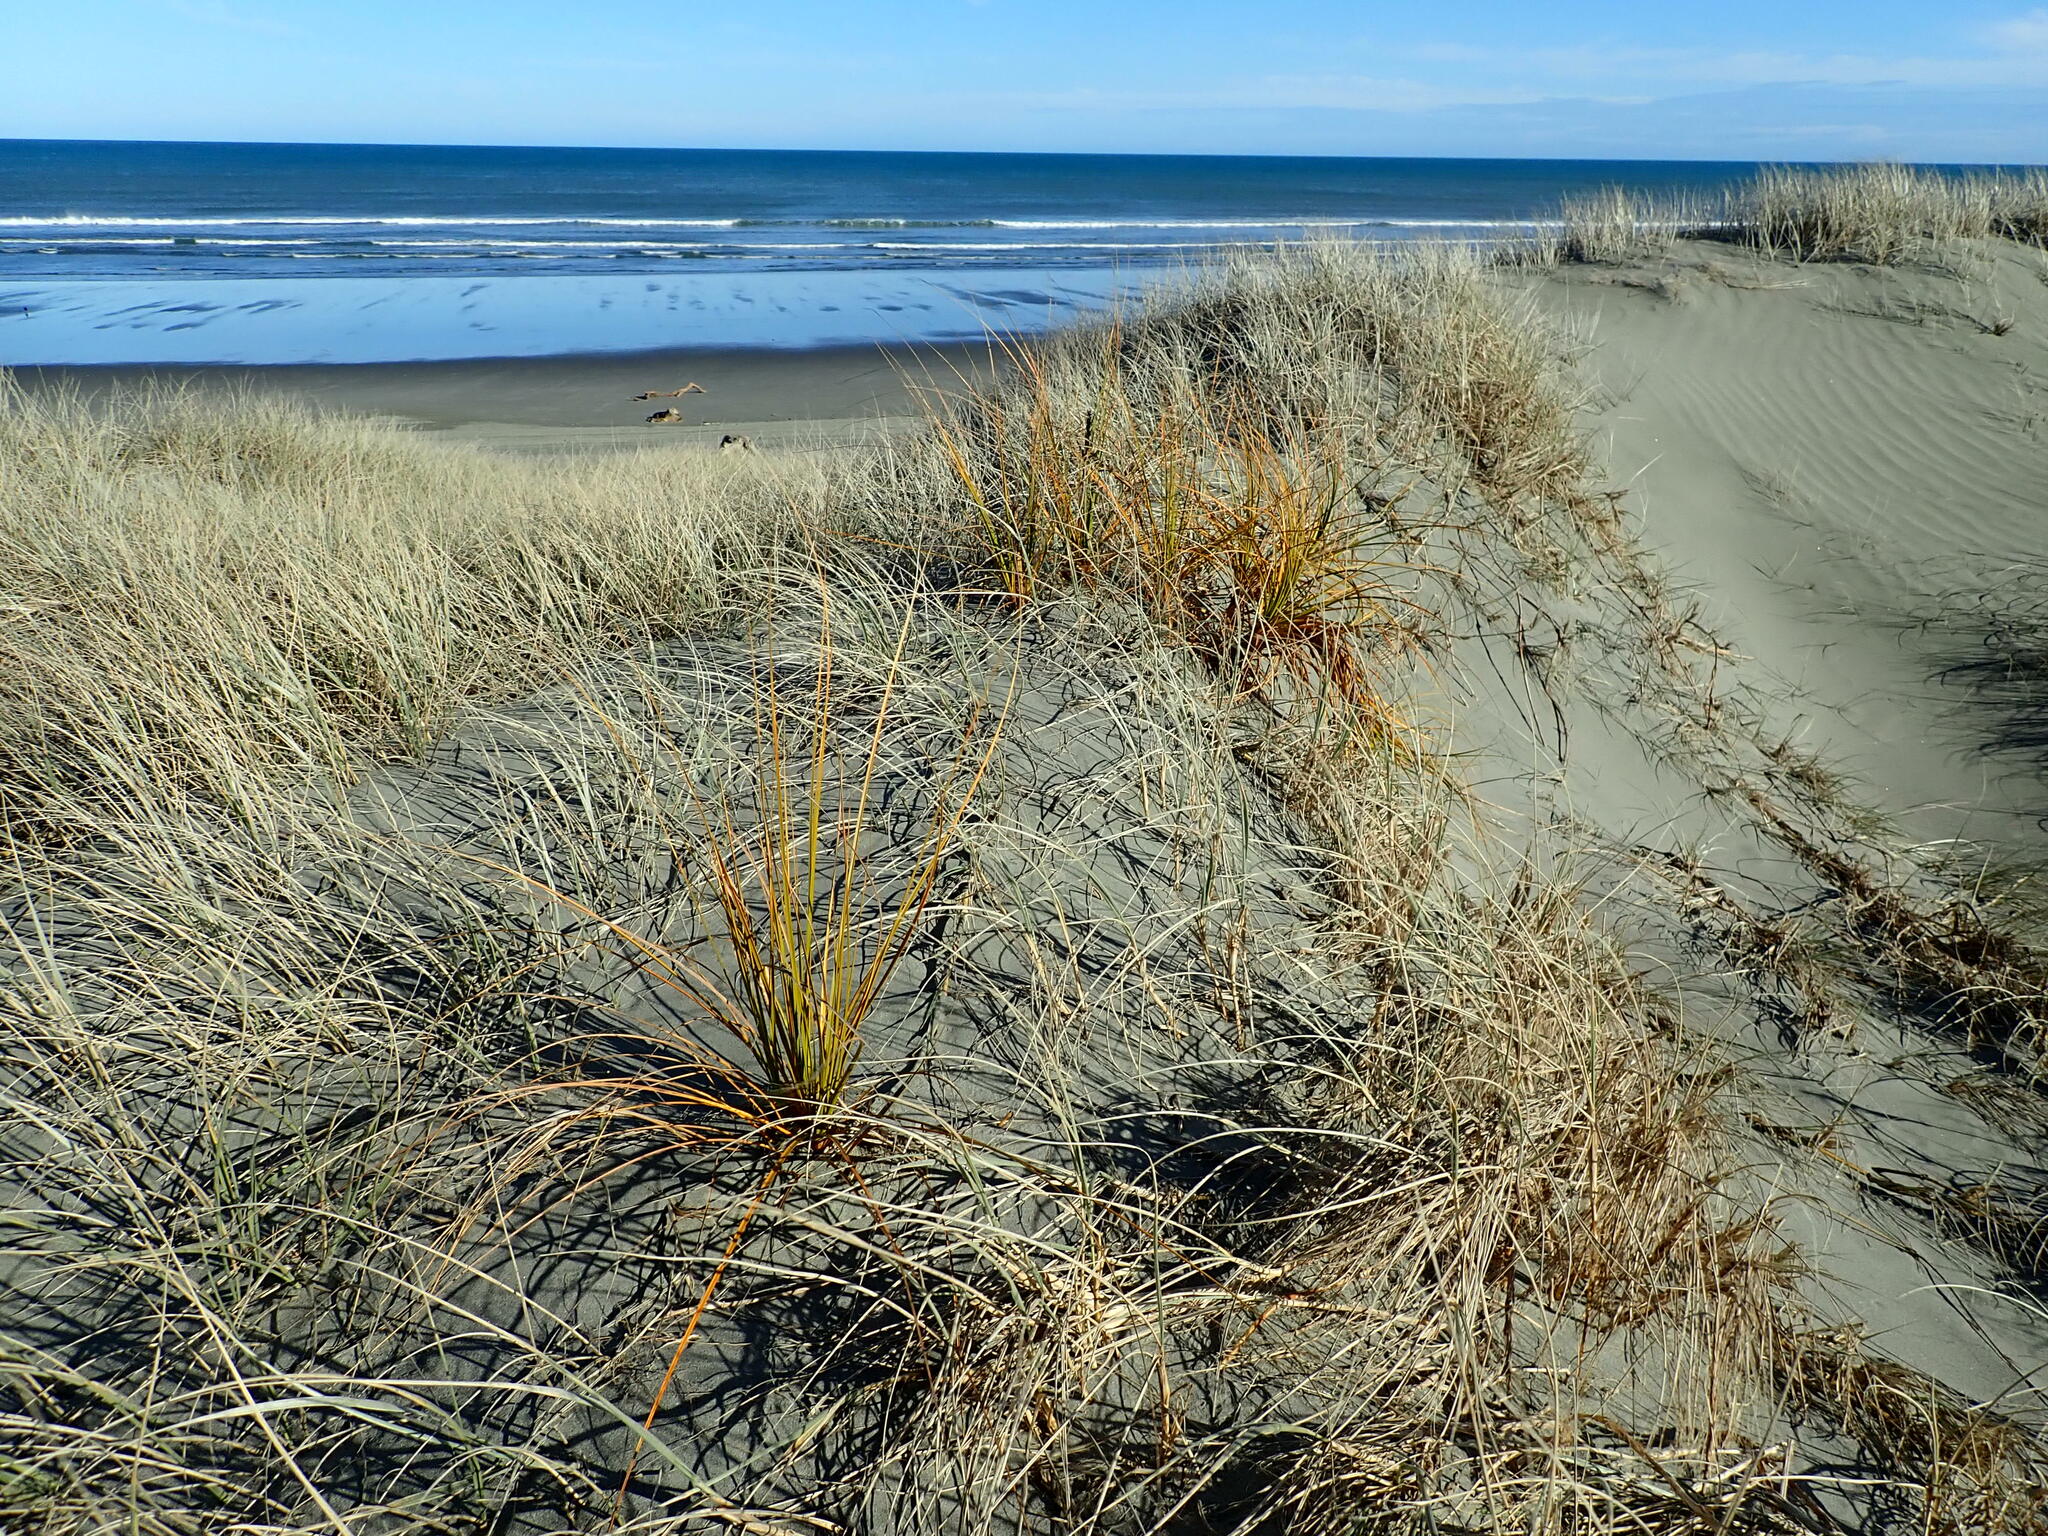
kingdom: Plantae
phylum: Tracheophyta
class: Liliopsida
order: Poales
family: Cyperaceae
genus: Ficinia
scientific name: Ficinia spiralis
